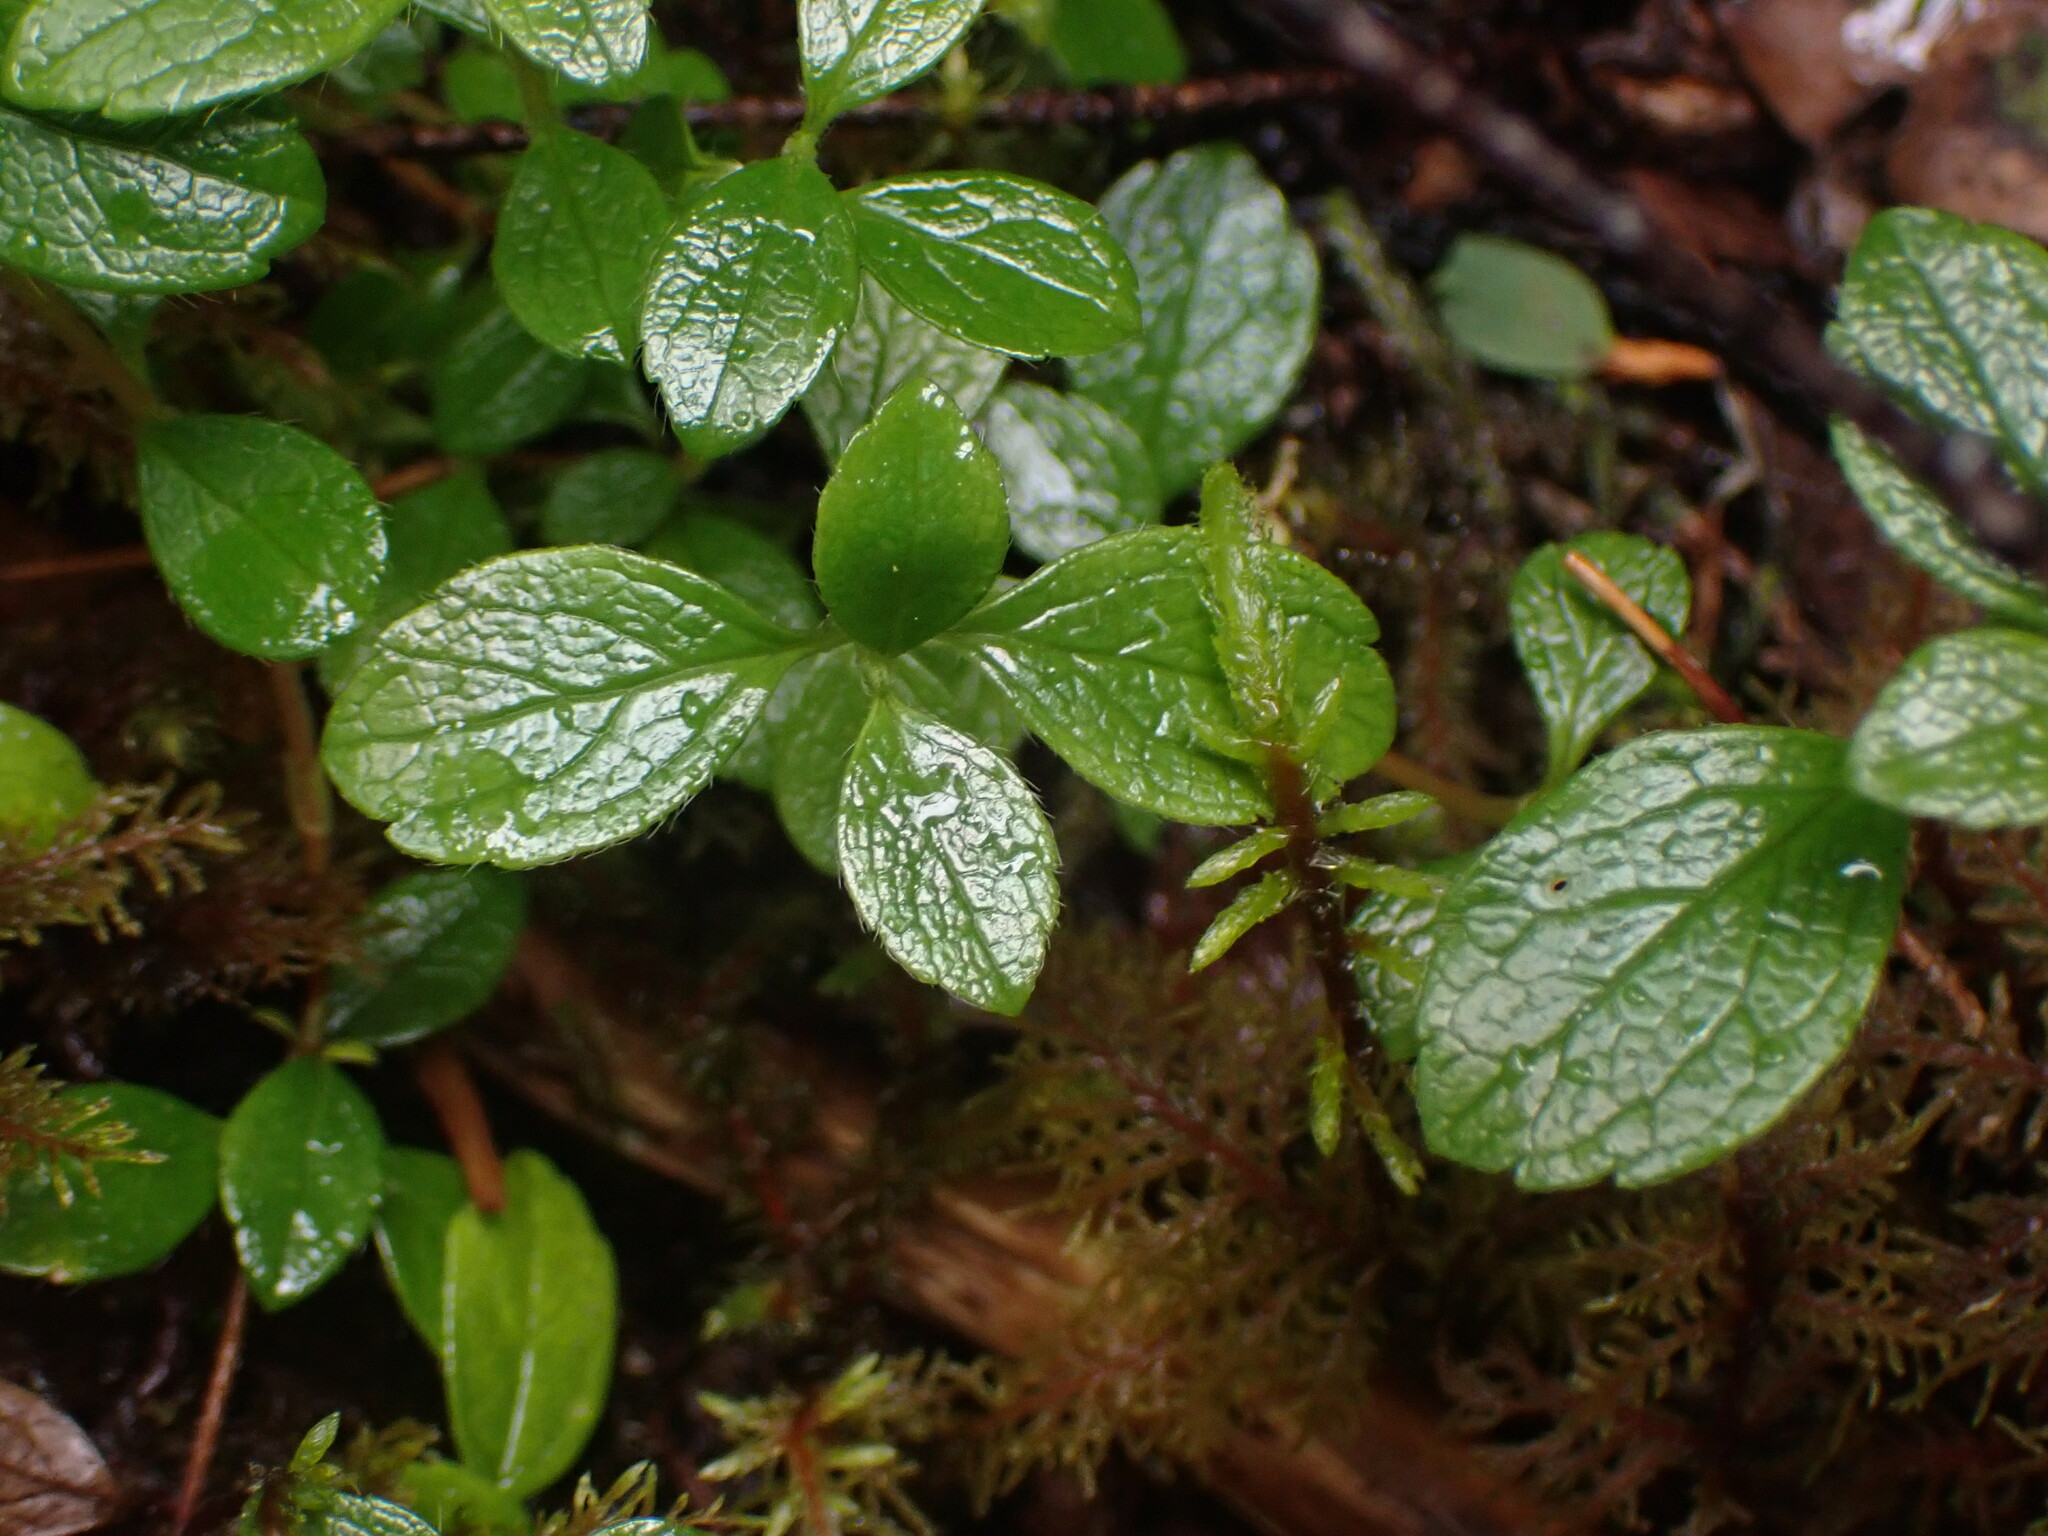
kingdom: Plantae
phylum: Tracheophyta
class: Magnoliopsida
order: Dipsacales
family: Caprifoliaceae
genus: Linnaea
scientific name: Linnaea borealis
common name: Twinflower
